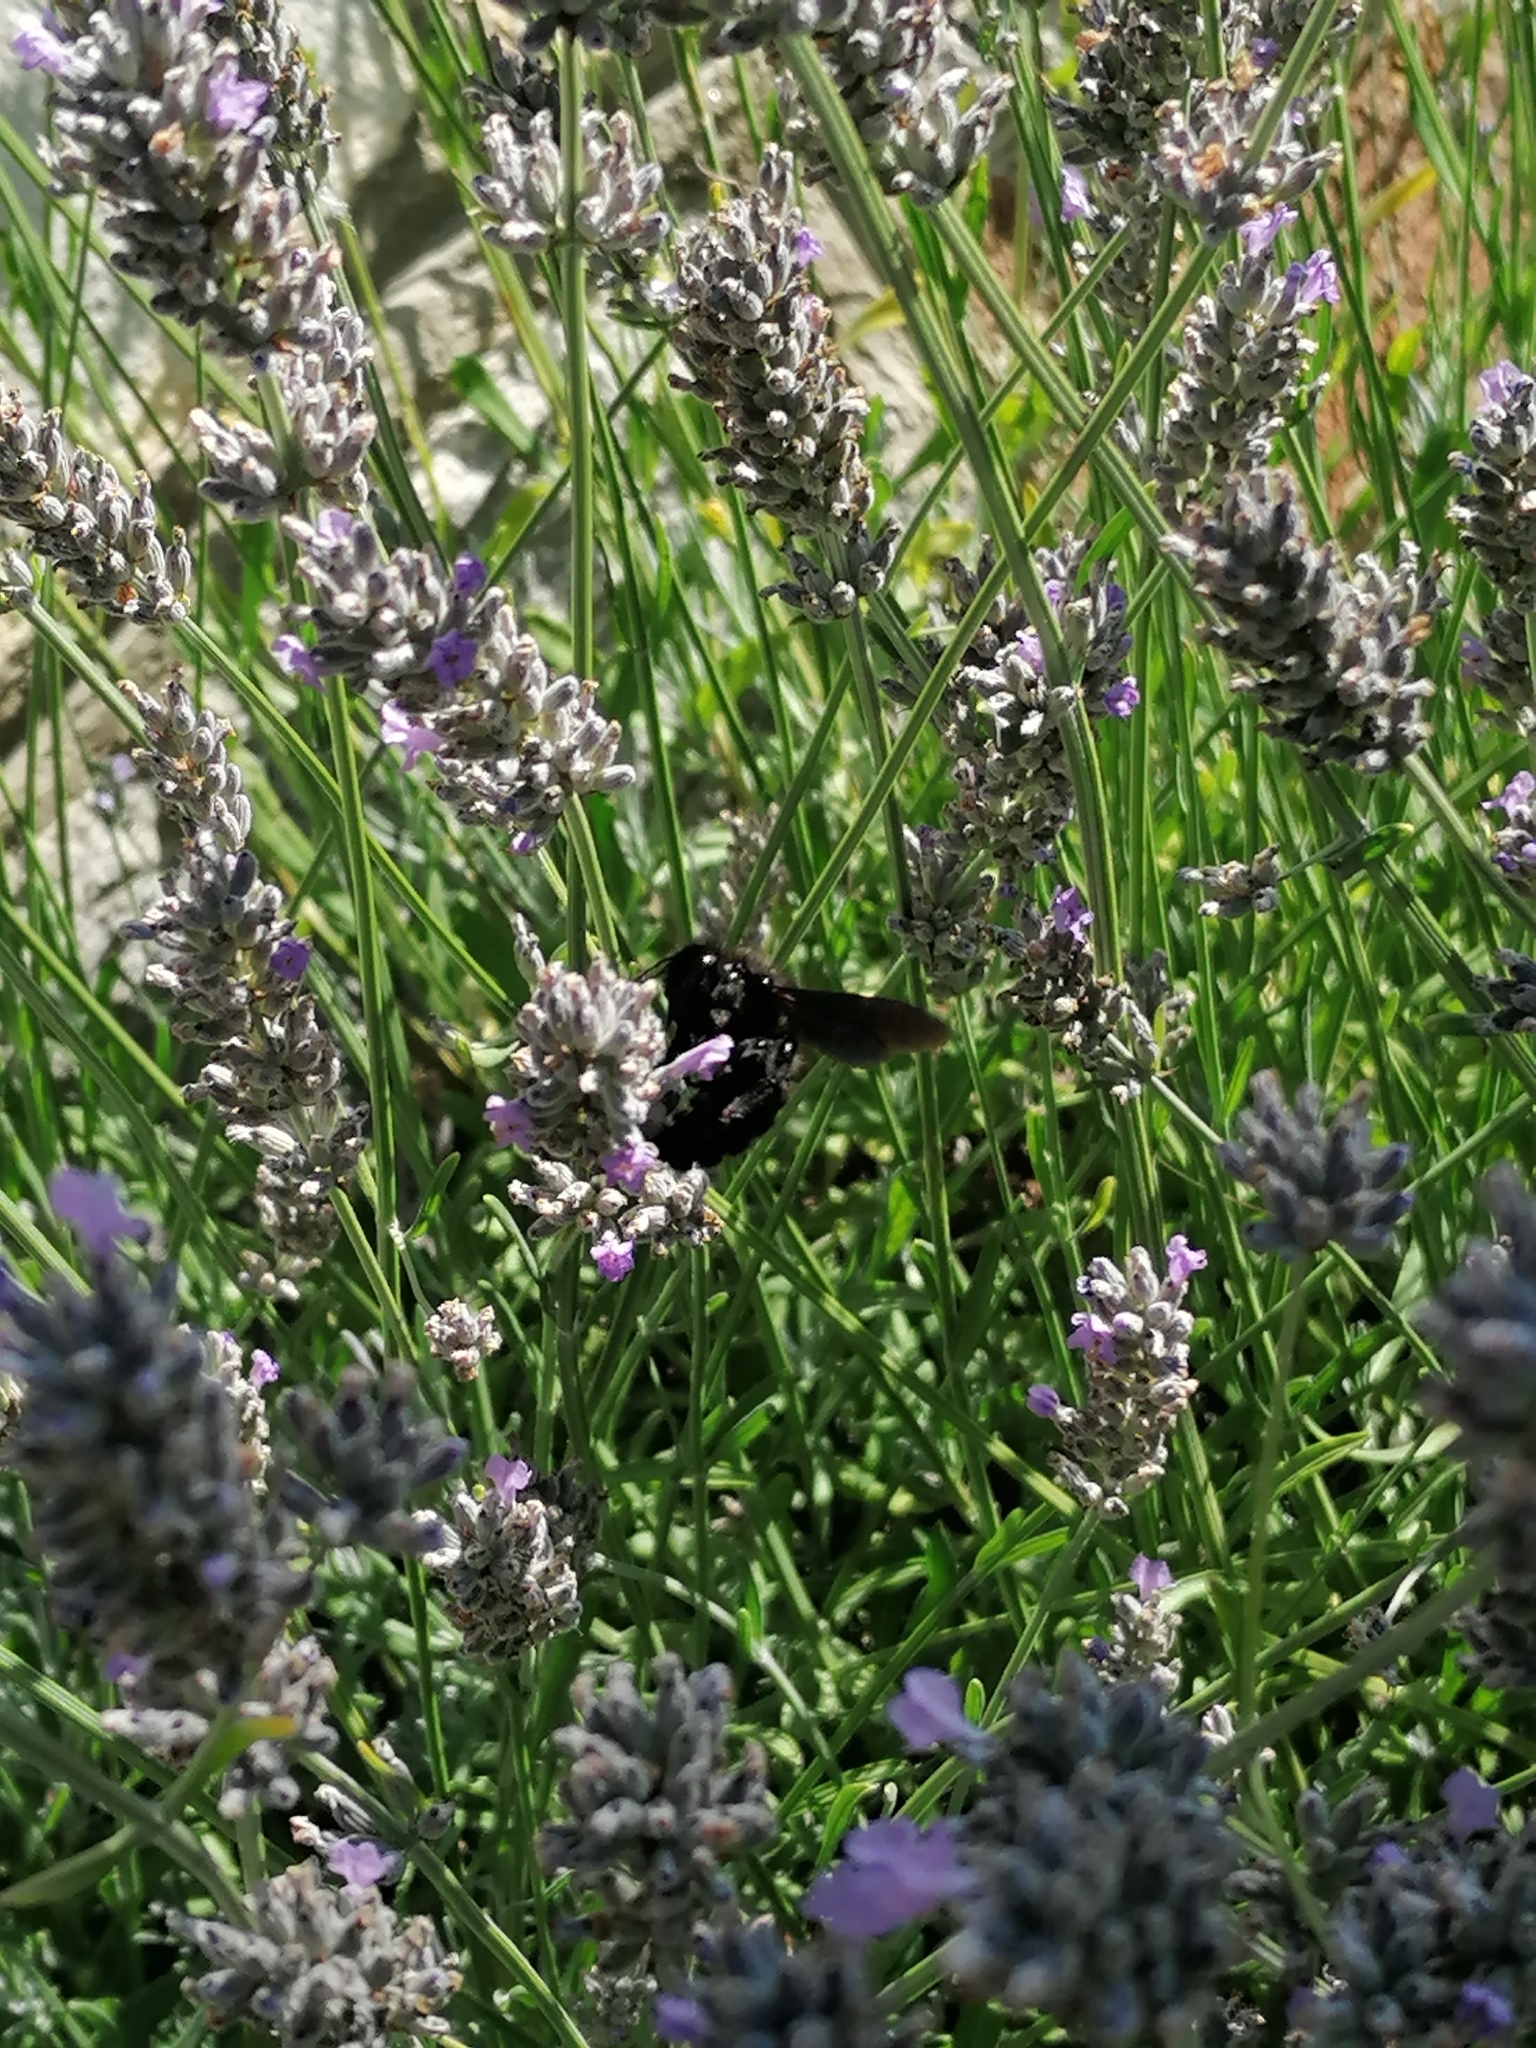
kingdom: Animalia
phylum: Arthropoda
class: Insecta
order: Hymenoptera
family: Apidae
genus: Xylocopa
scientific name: Xylocopa violacea
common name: Violet carpenter bee
